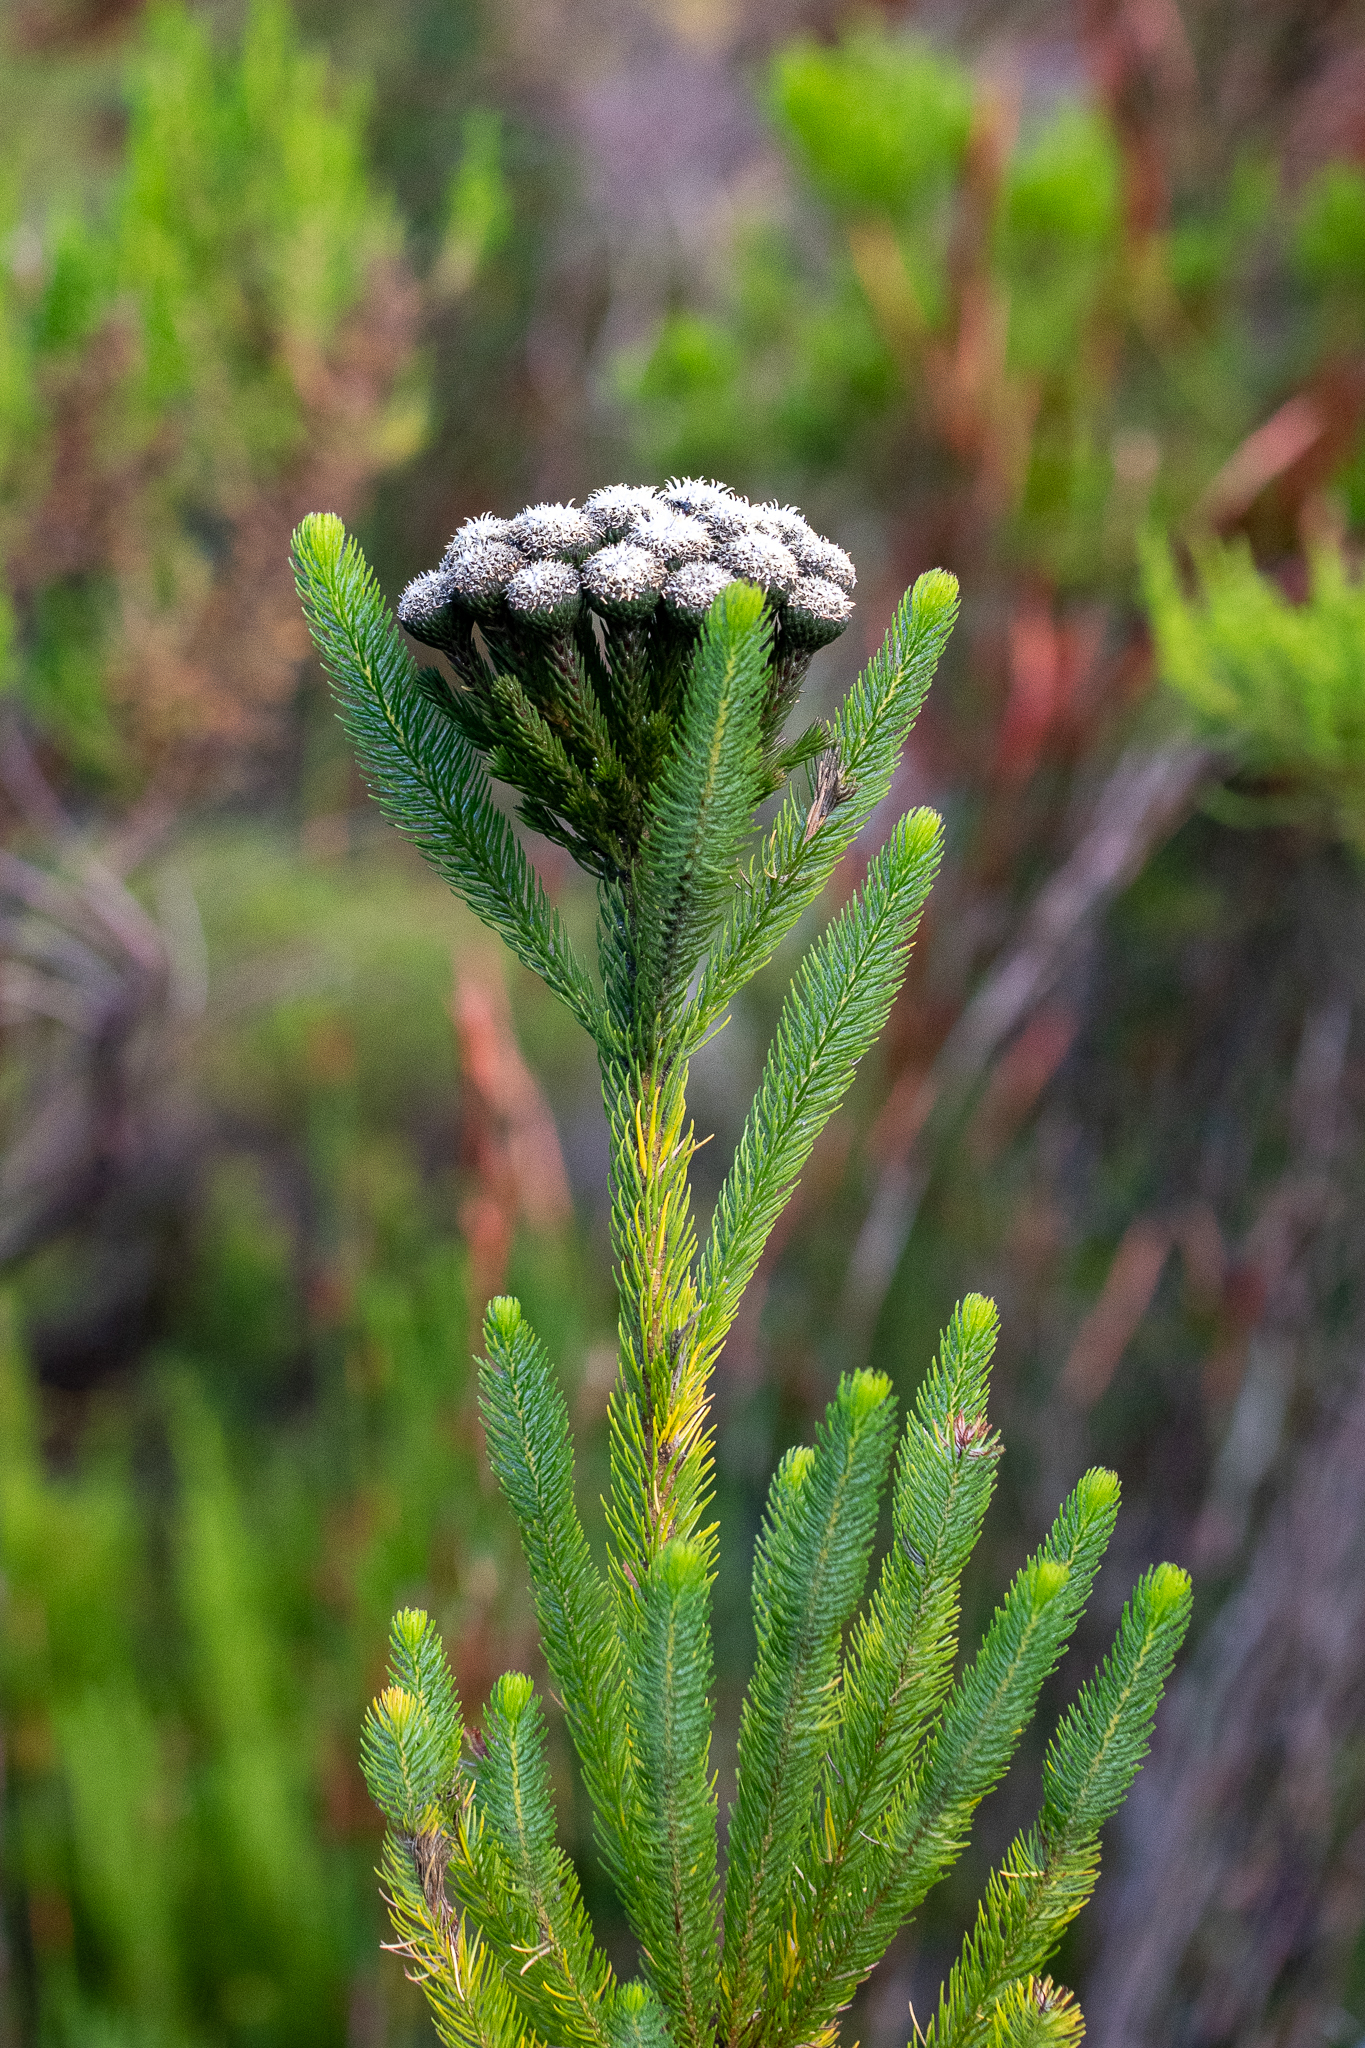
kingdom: Plantae
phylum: Tracheophyta
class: Magnoliopsida
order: Bruniales
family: Bruniaceae
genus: Berzelia
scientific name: Berzelia albiflora
